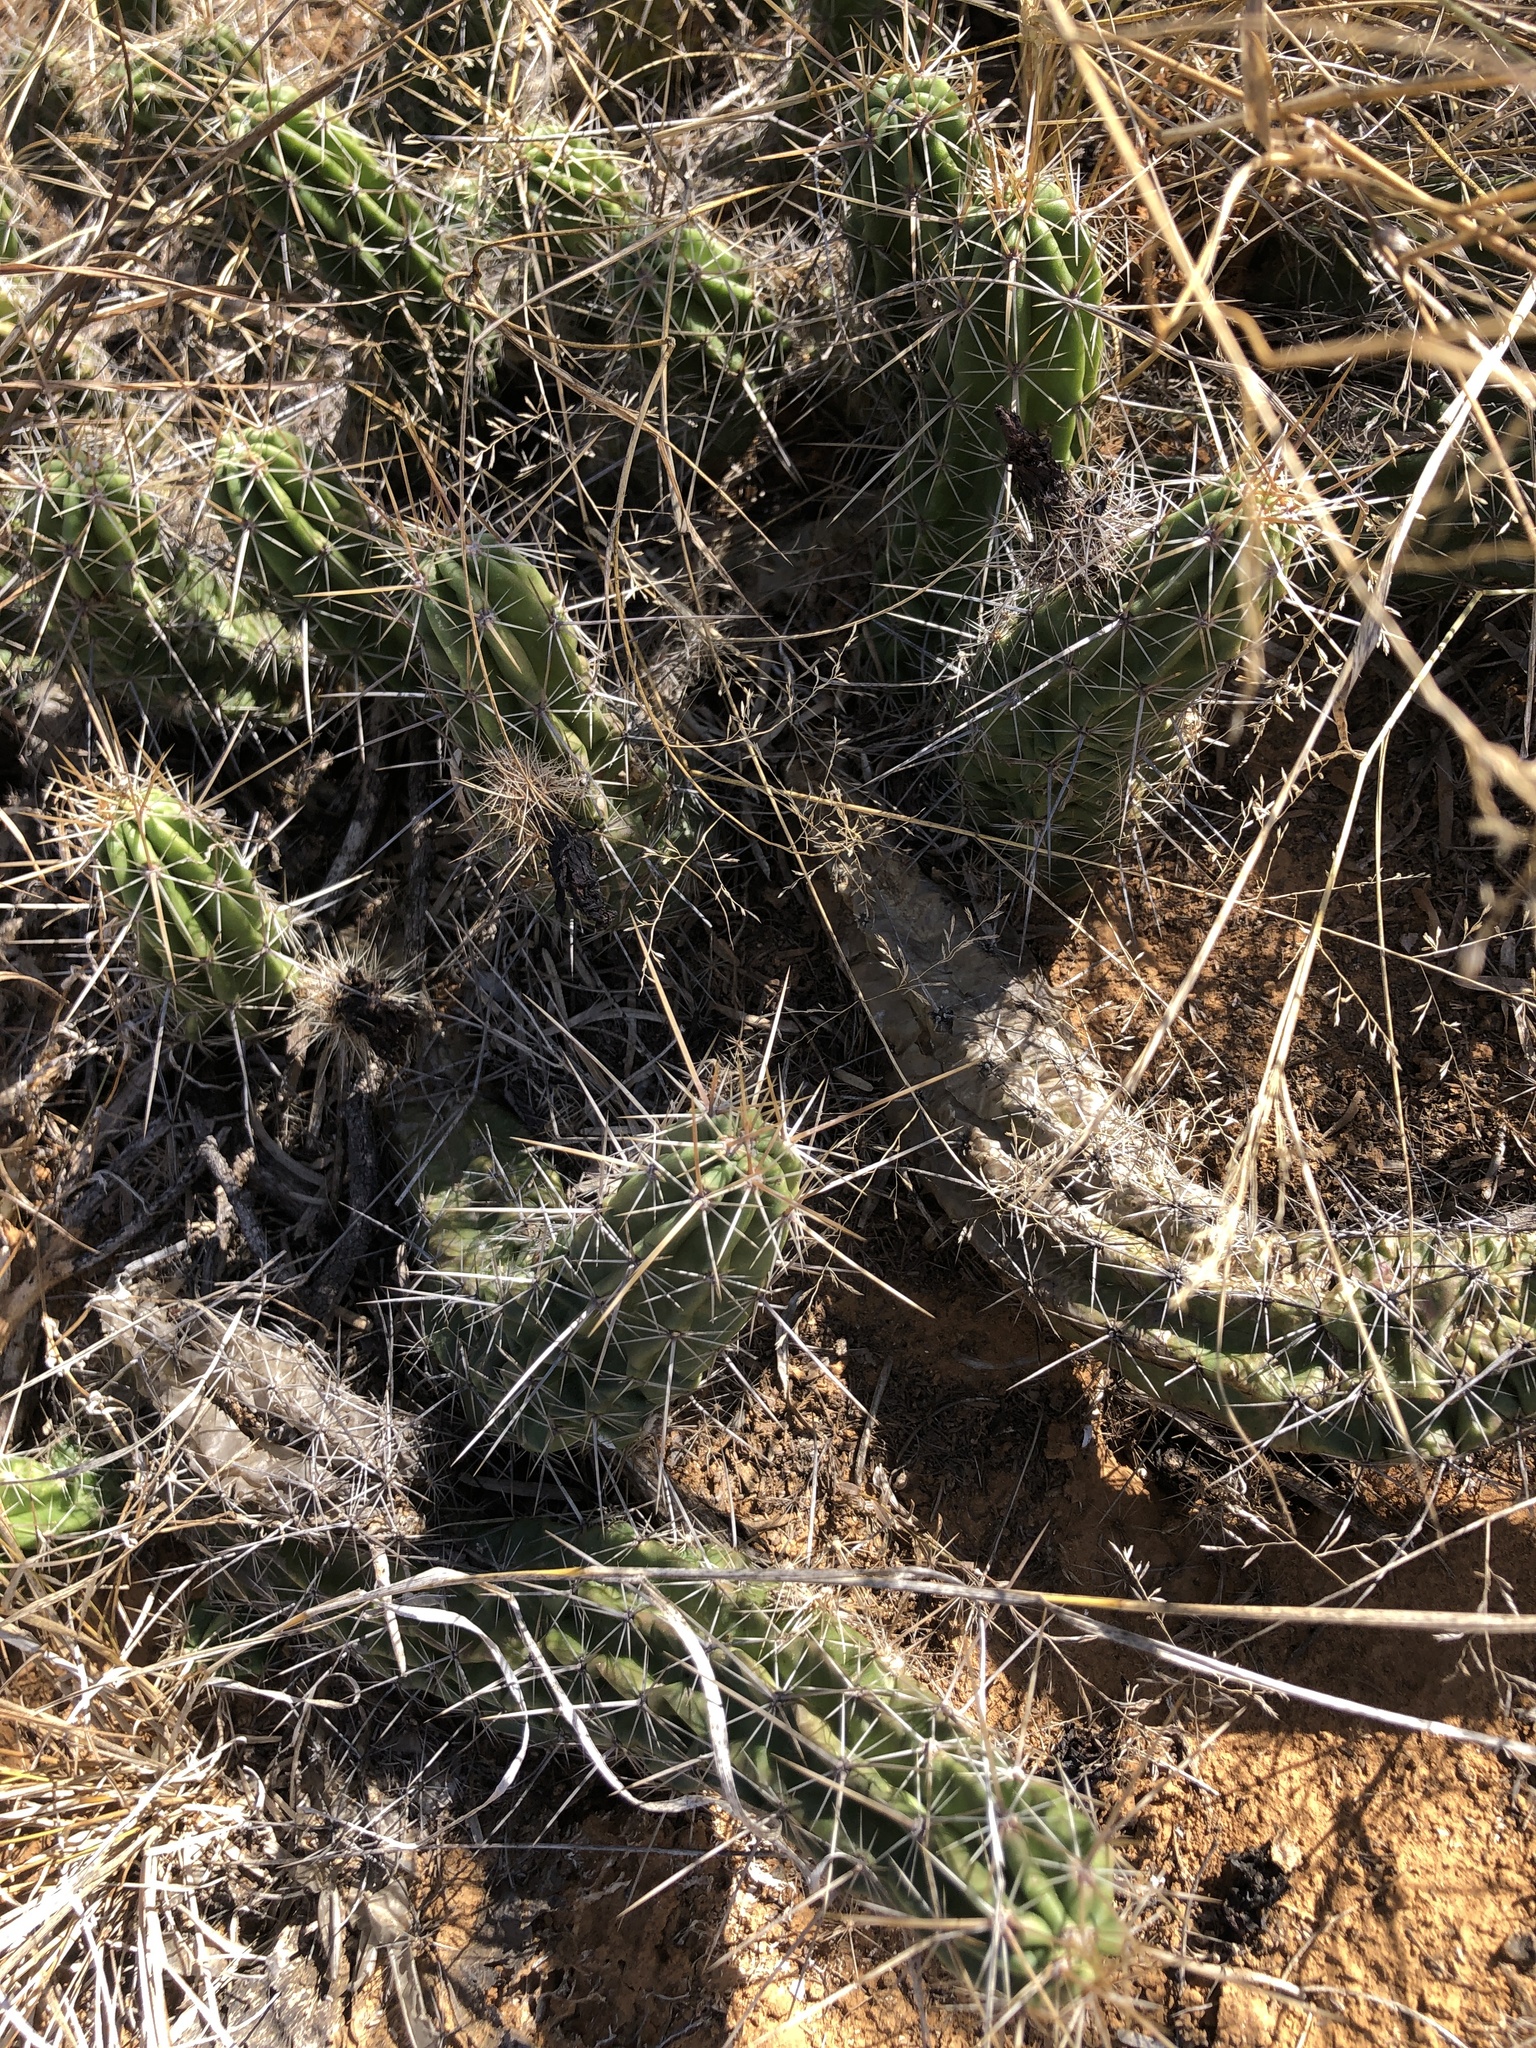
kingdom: Plantae
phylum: Tracheophyta
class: Magnoliopsida
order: Caryophyllales
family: Cactaceae
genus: Echinocereus
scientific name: Echinocereus enneacanthus
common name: Pitaya
